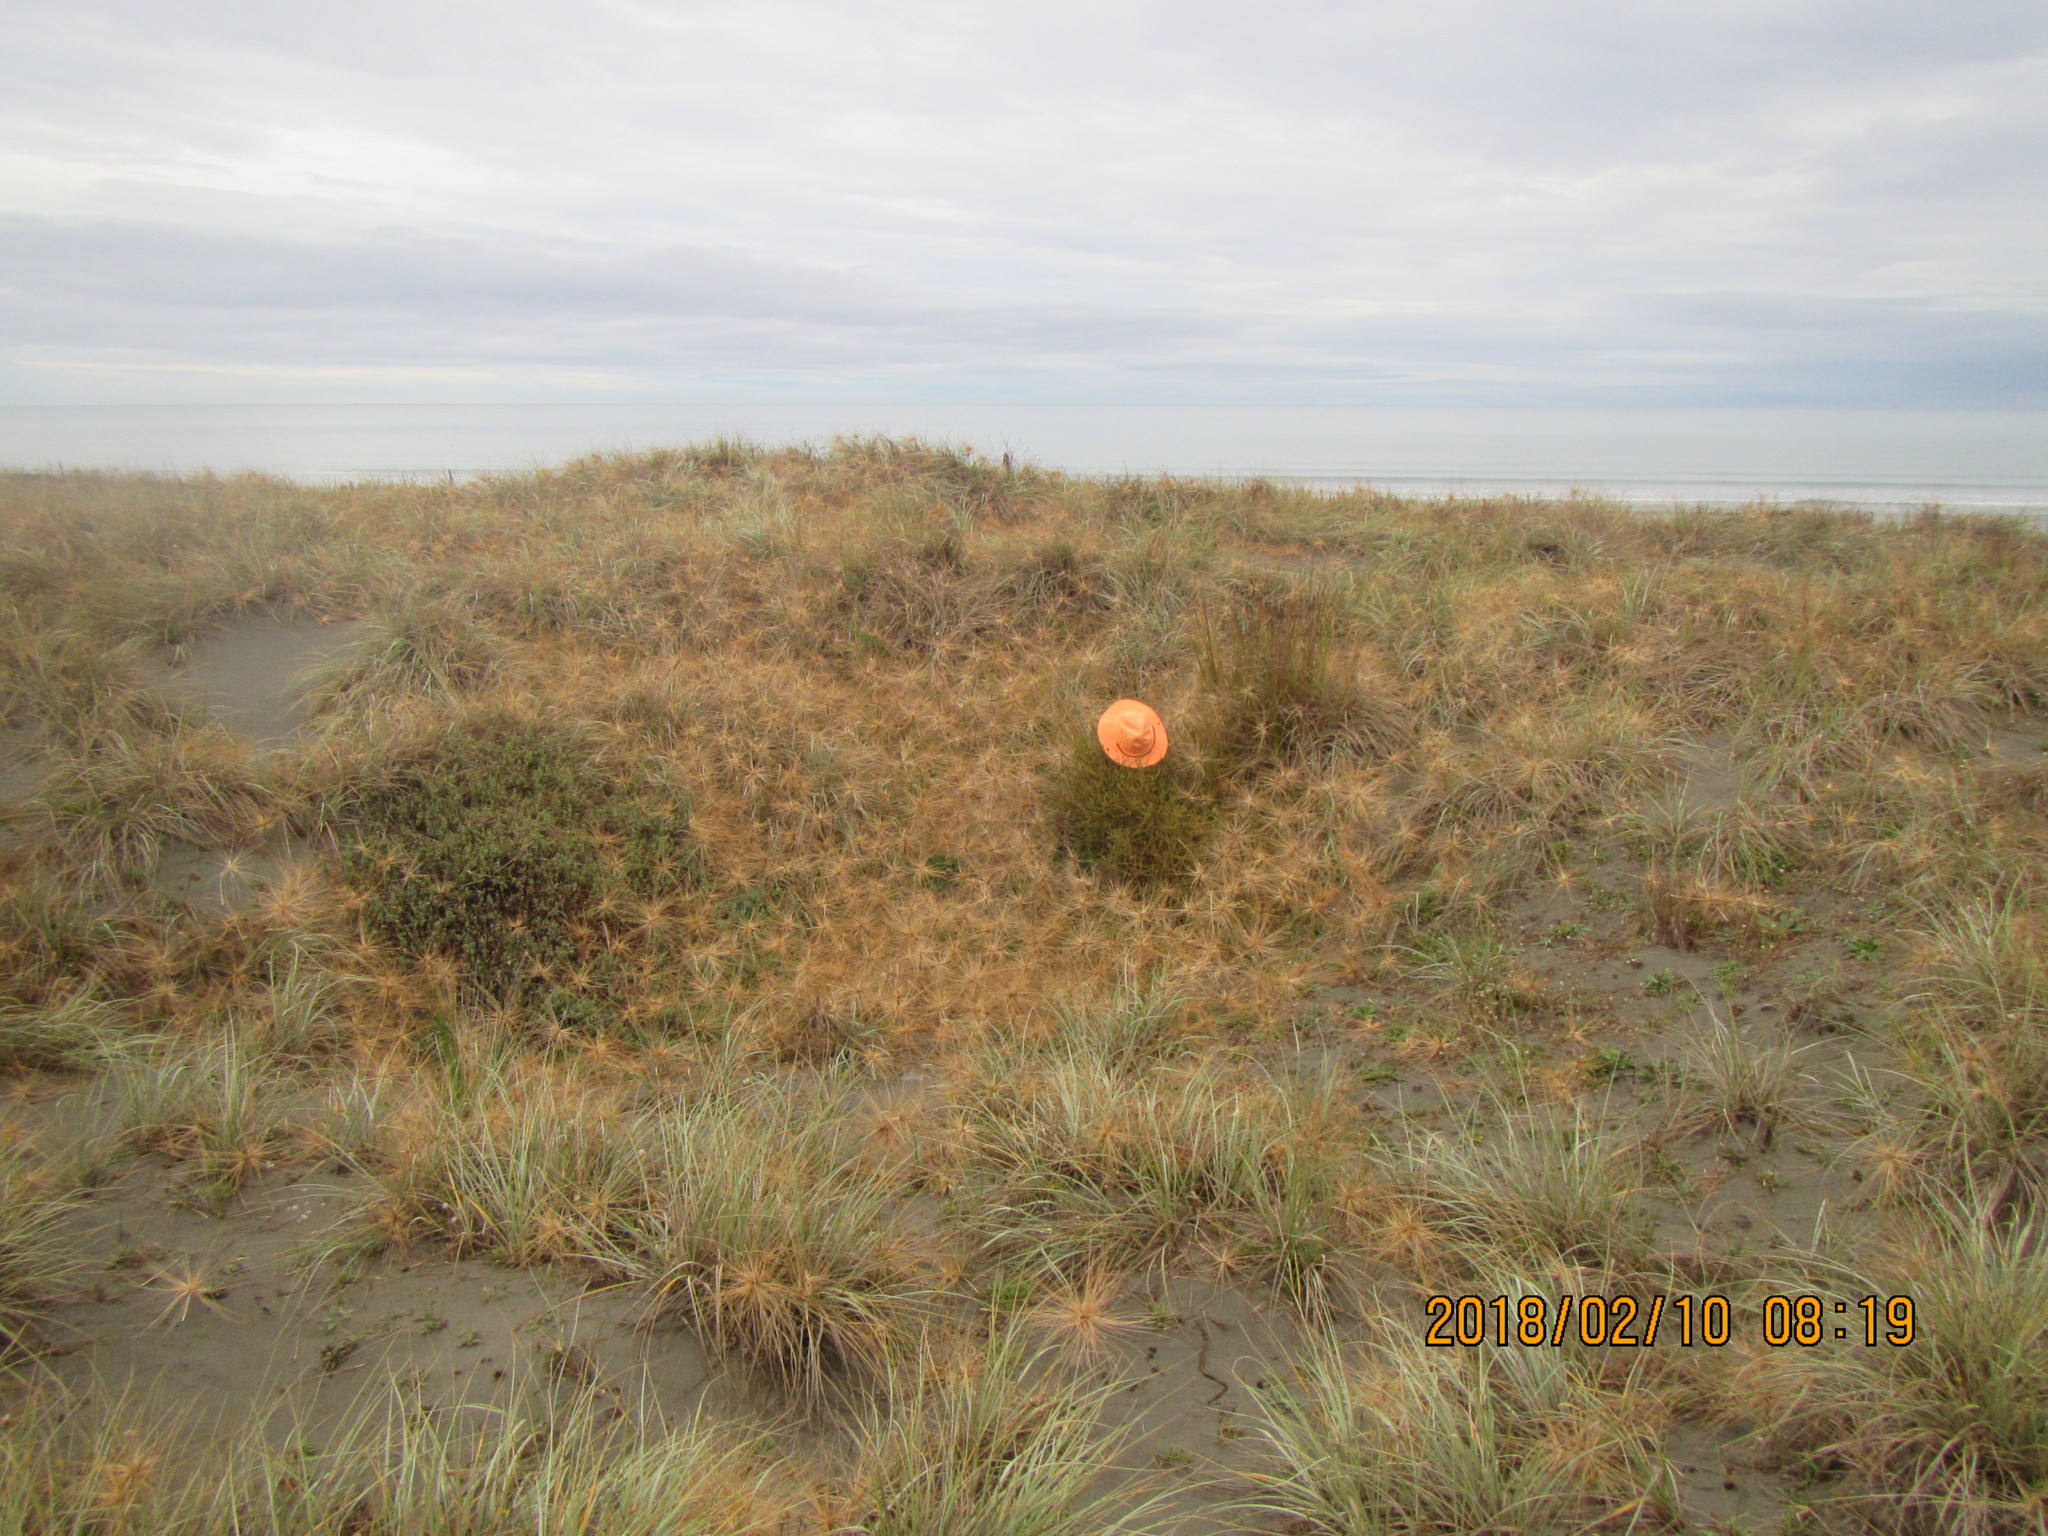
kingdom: Plantae
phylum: Tracheophyta
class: Magnoliopsida
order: Gentianales
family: Rubiaceae
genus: Coprosma
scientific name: Coprosma acerosa
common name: Sand coprosma
